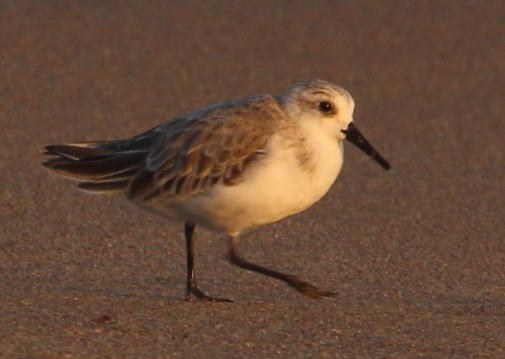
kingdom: Animalia
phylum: Chordata
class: Aves
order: Charadriiformes
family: Scolopacidae
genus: Calidris
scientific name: Calidris alba
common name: Sanderling
